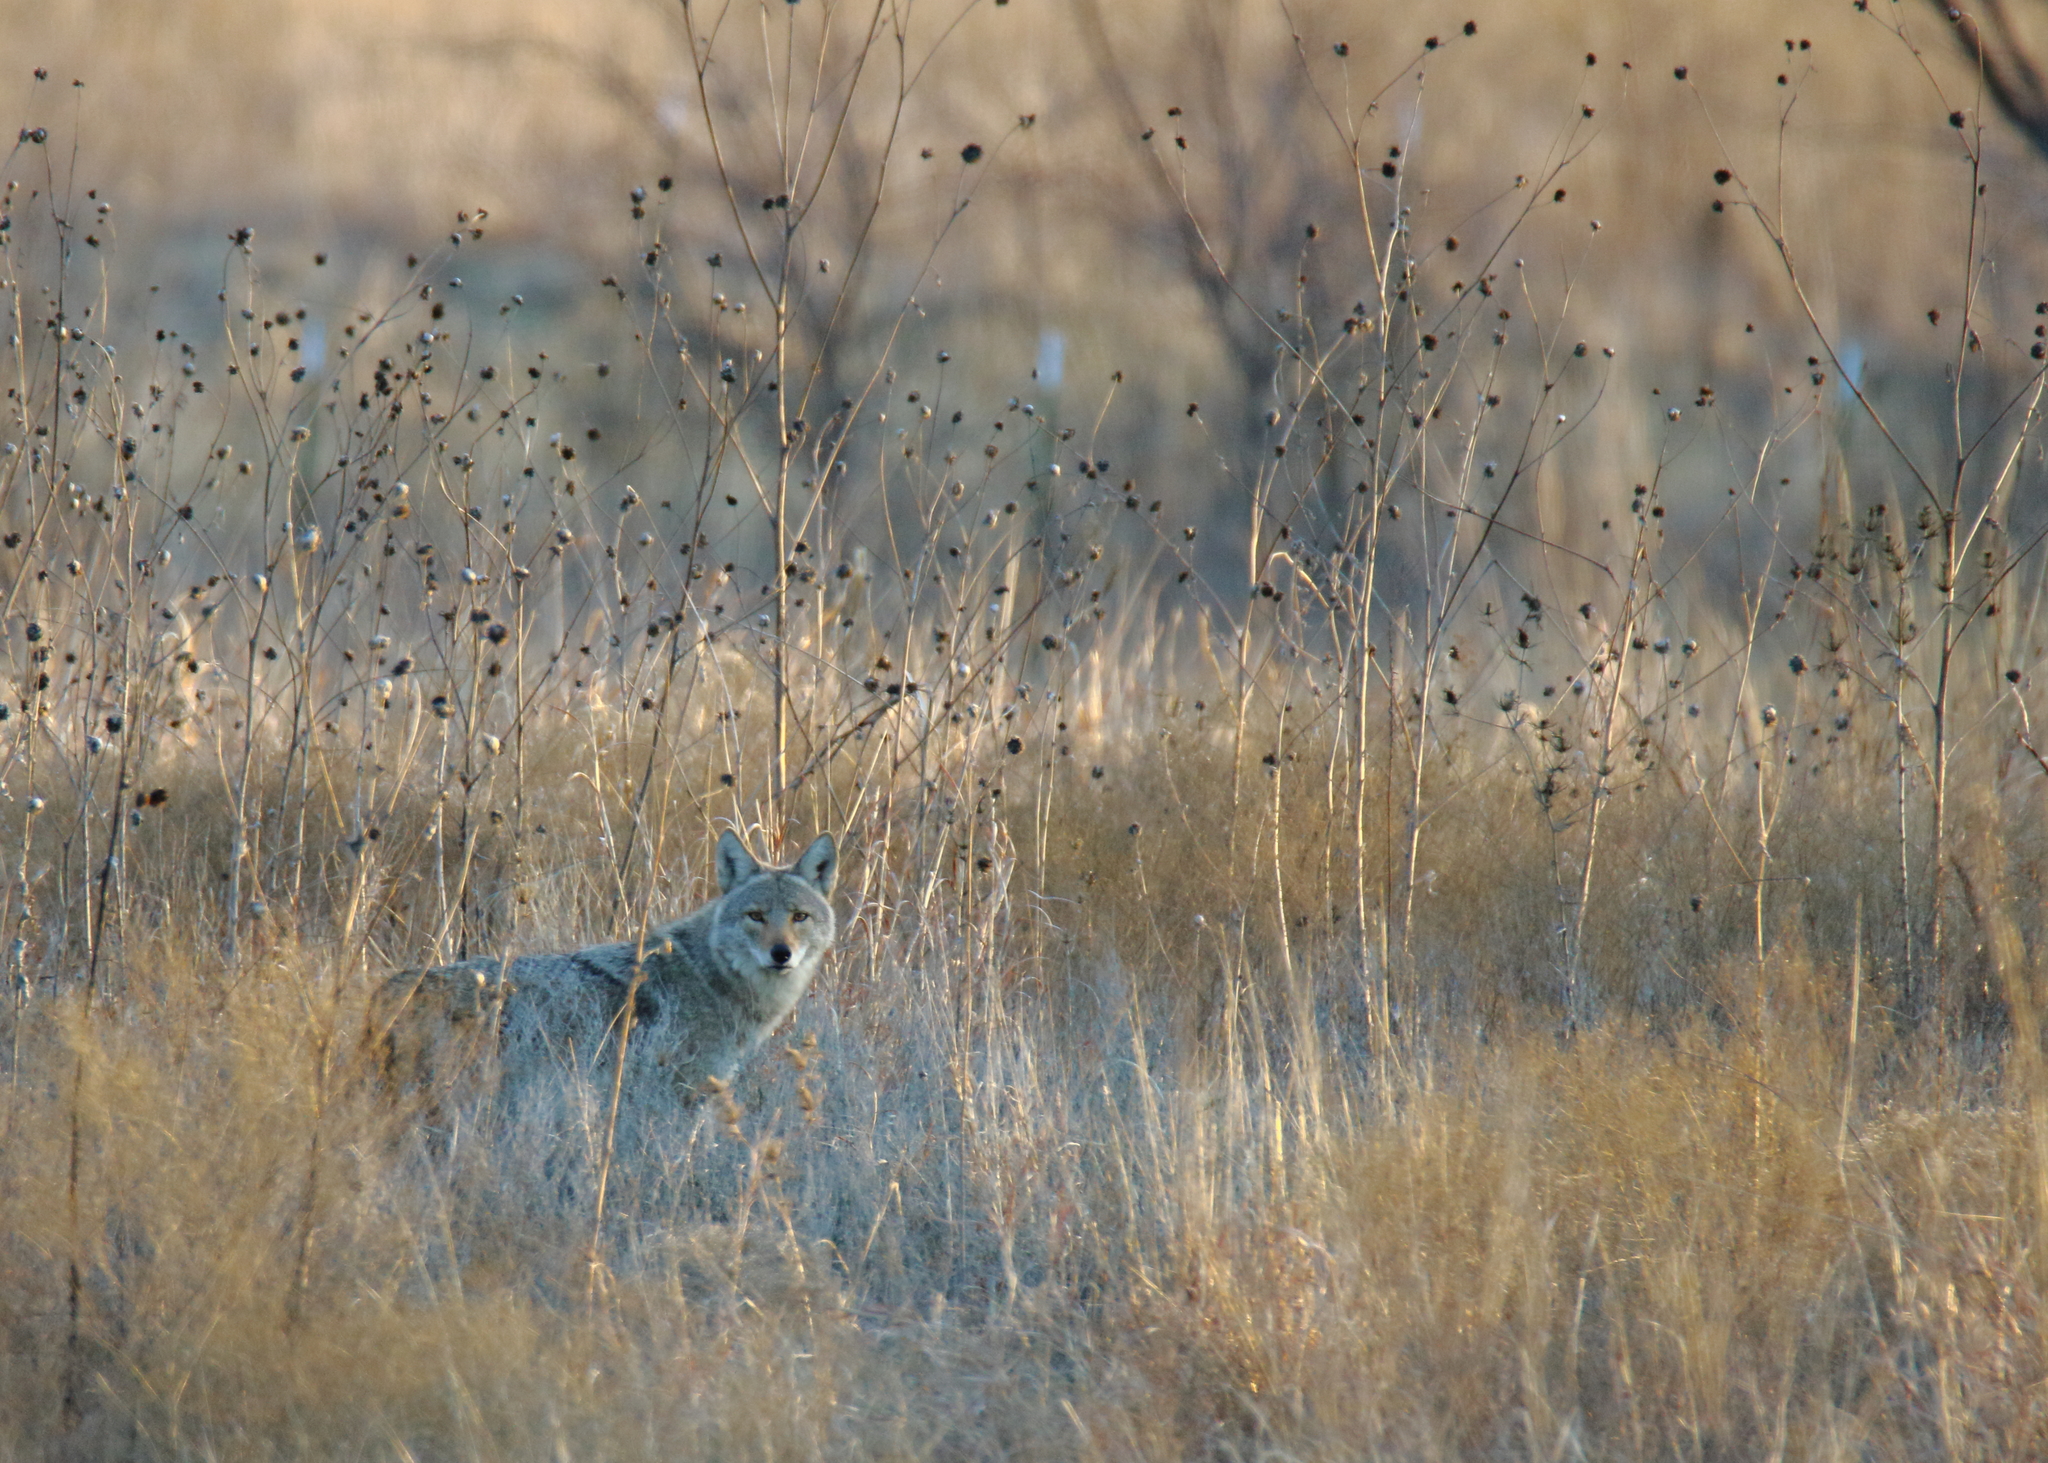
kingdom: Animalia
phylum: Chordata
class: Mammalia
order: Carnivora
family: Canidae
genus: Canis
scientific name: Canis latrans
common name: Coyote
